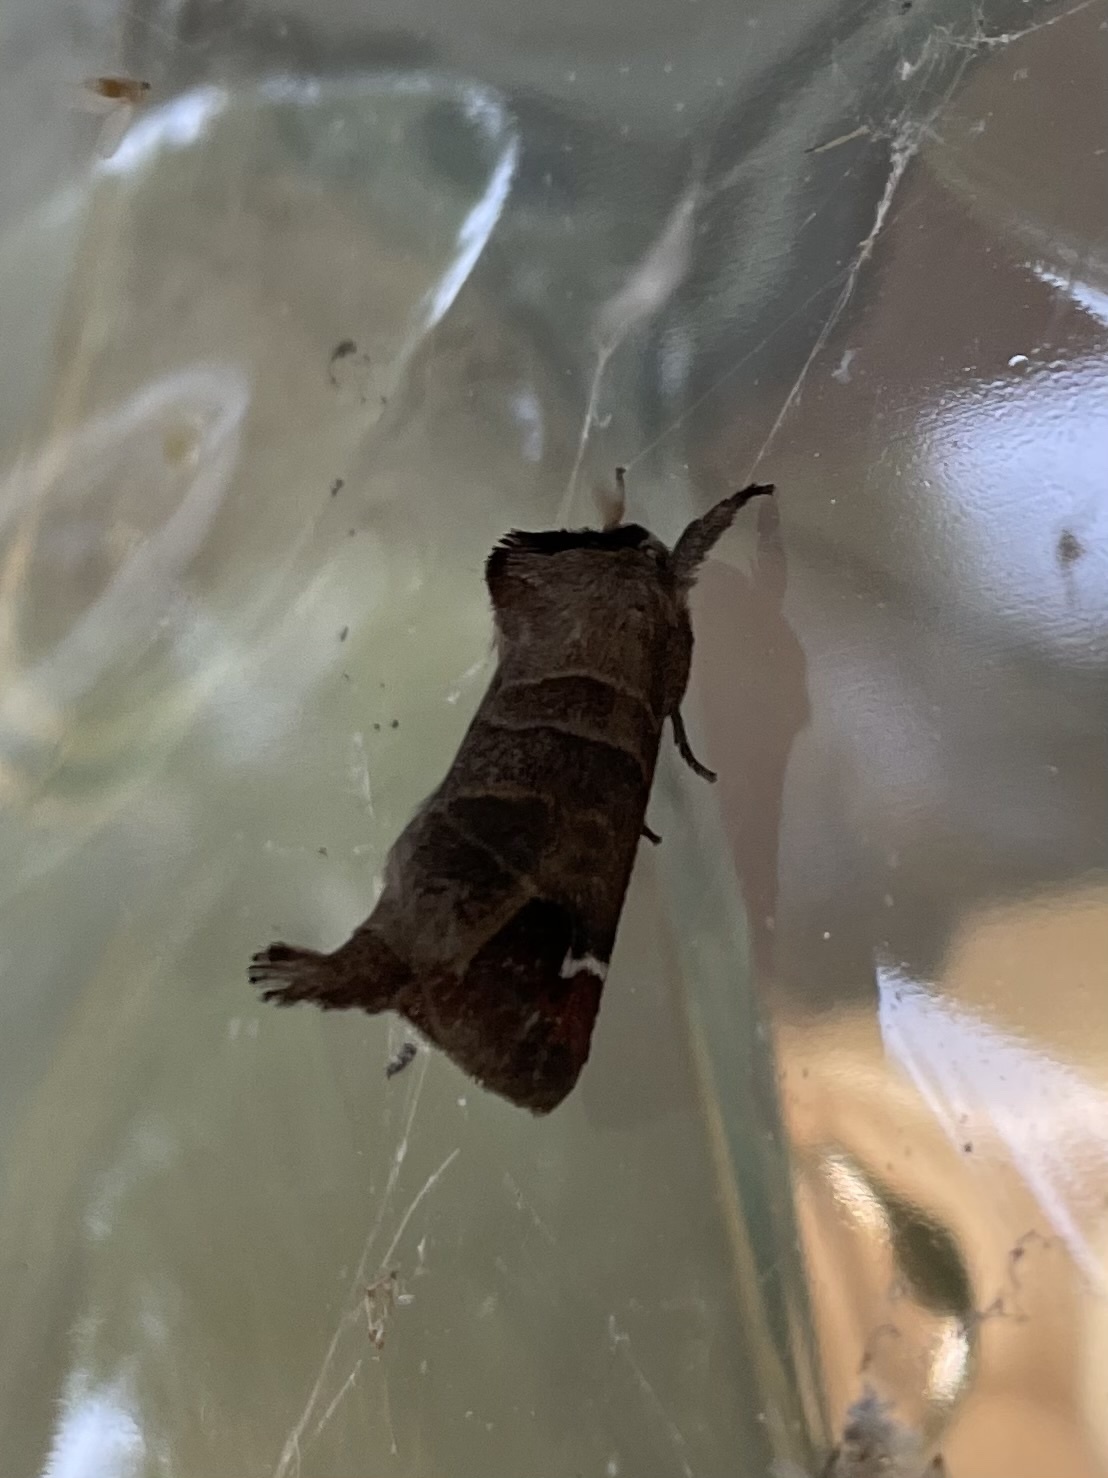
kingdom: Animalia
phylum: Arthropoda
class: Insecta
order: Lepidoptera
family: Notodontidae
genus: Clostera
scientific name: Clostera albosigma
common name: Sigmoid prominent
